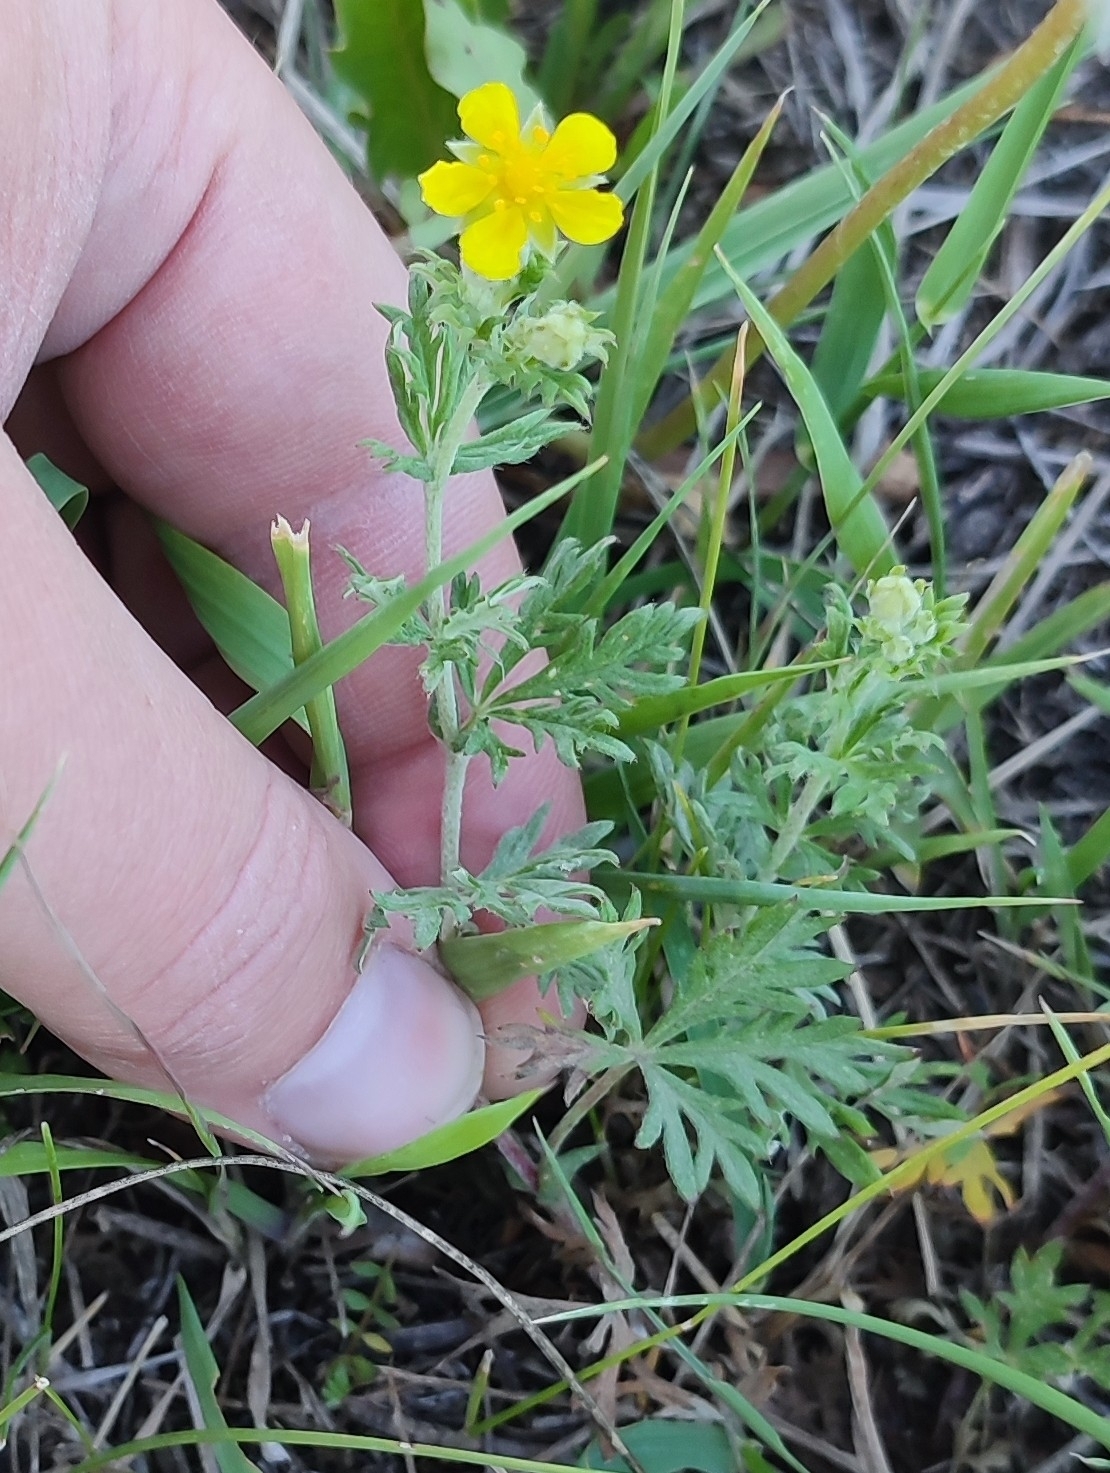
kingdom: Plantae
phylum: Tracheophyta
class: Magnoliopsida
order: Rosales
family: Rosaceae
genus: Potentilla
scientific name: Potentilla argentea
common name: Hoary cinquefoil
